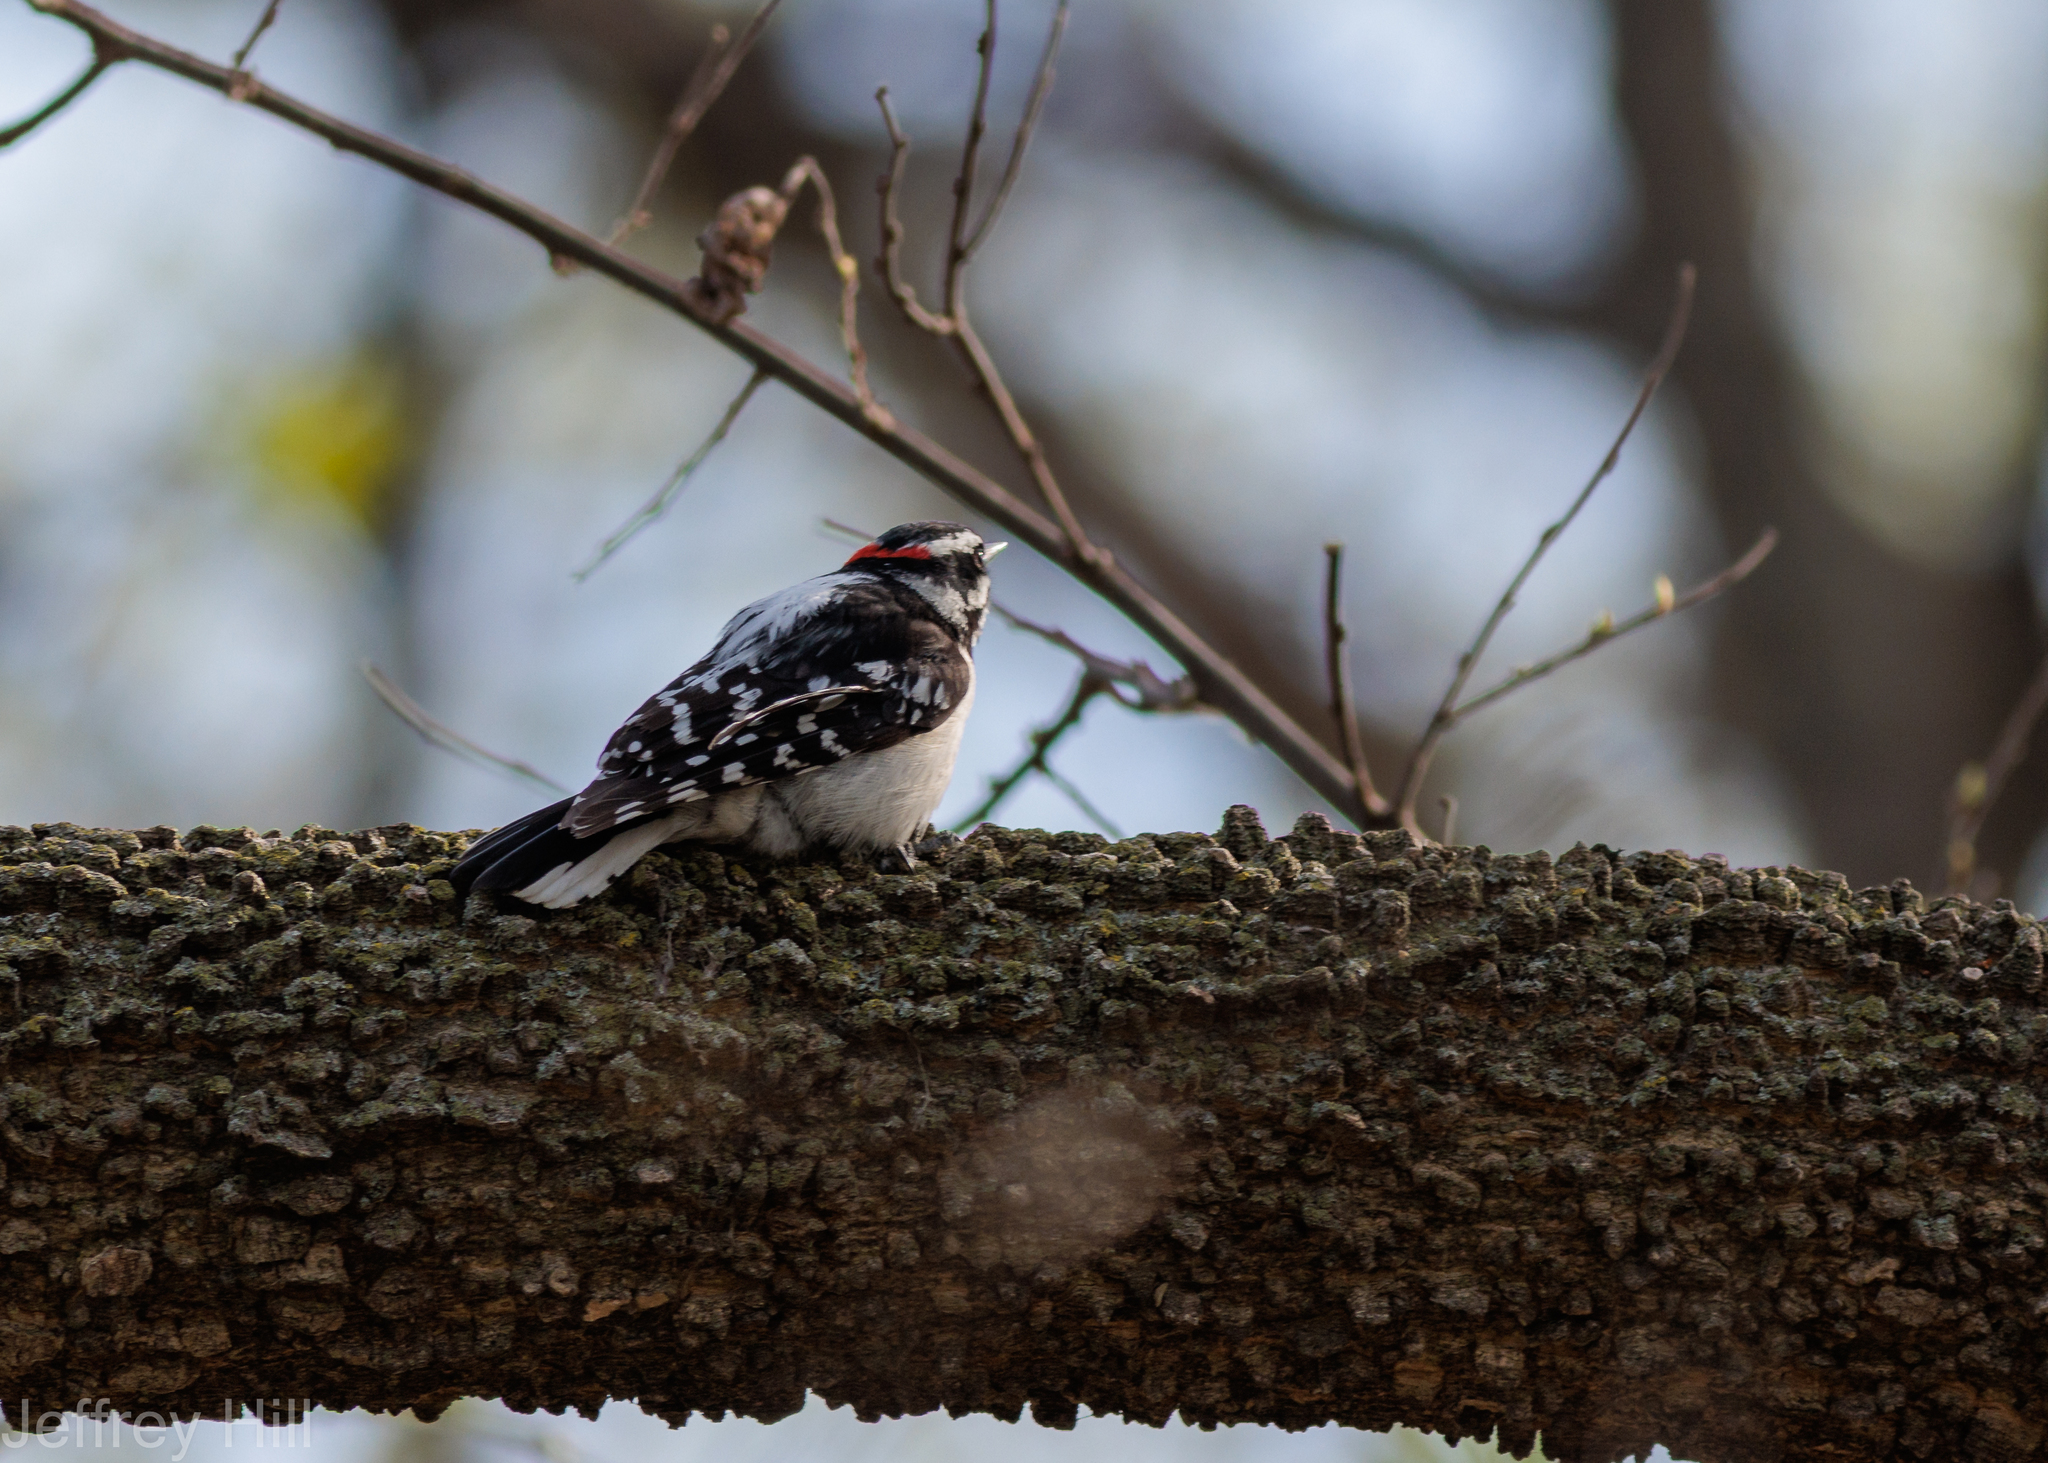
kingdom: Animalia
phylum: Chordata
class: Aves
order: Piciformes
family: Picidae
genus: Dryobates
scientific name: Dryobates pubescens
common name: Downy woodpecker
